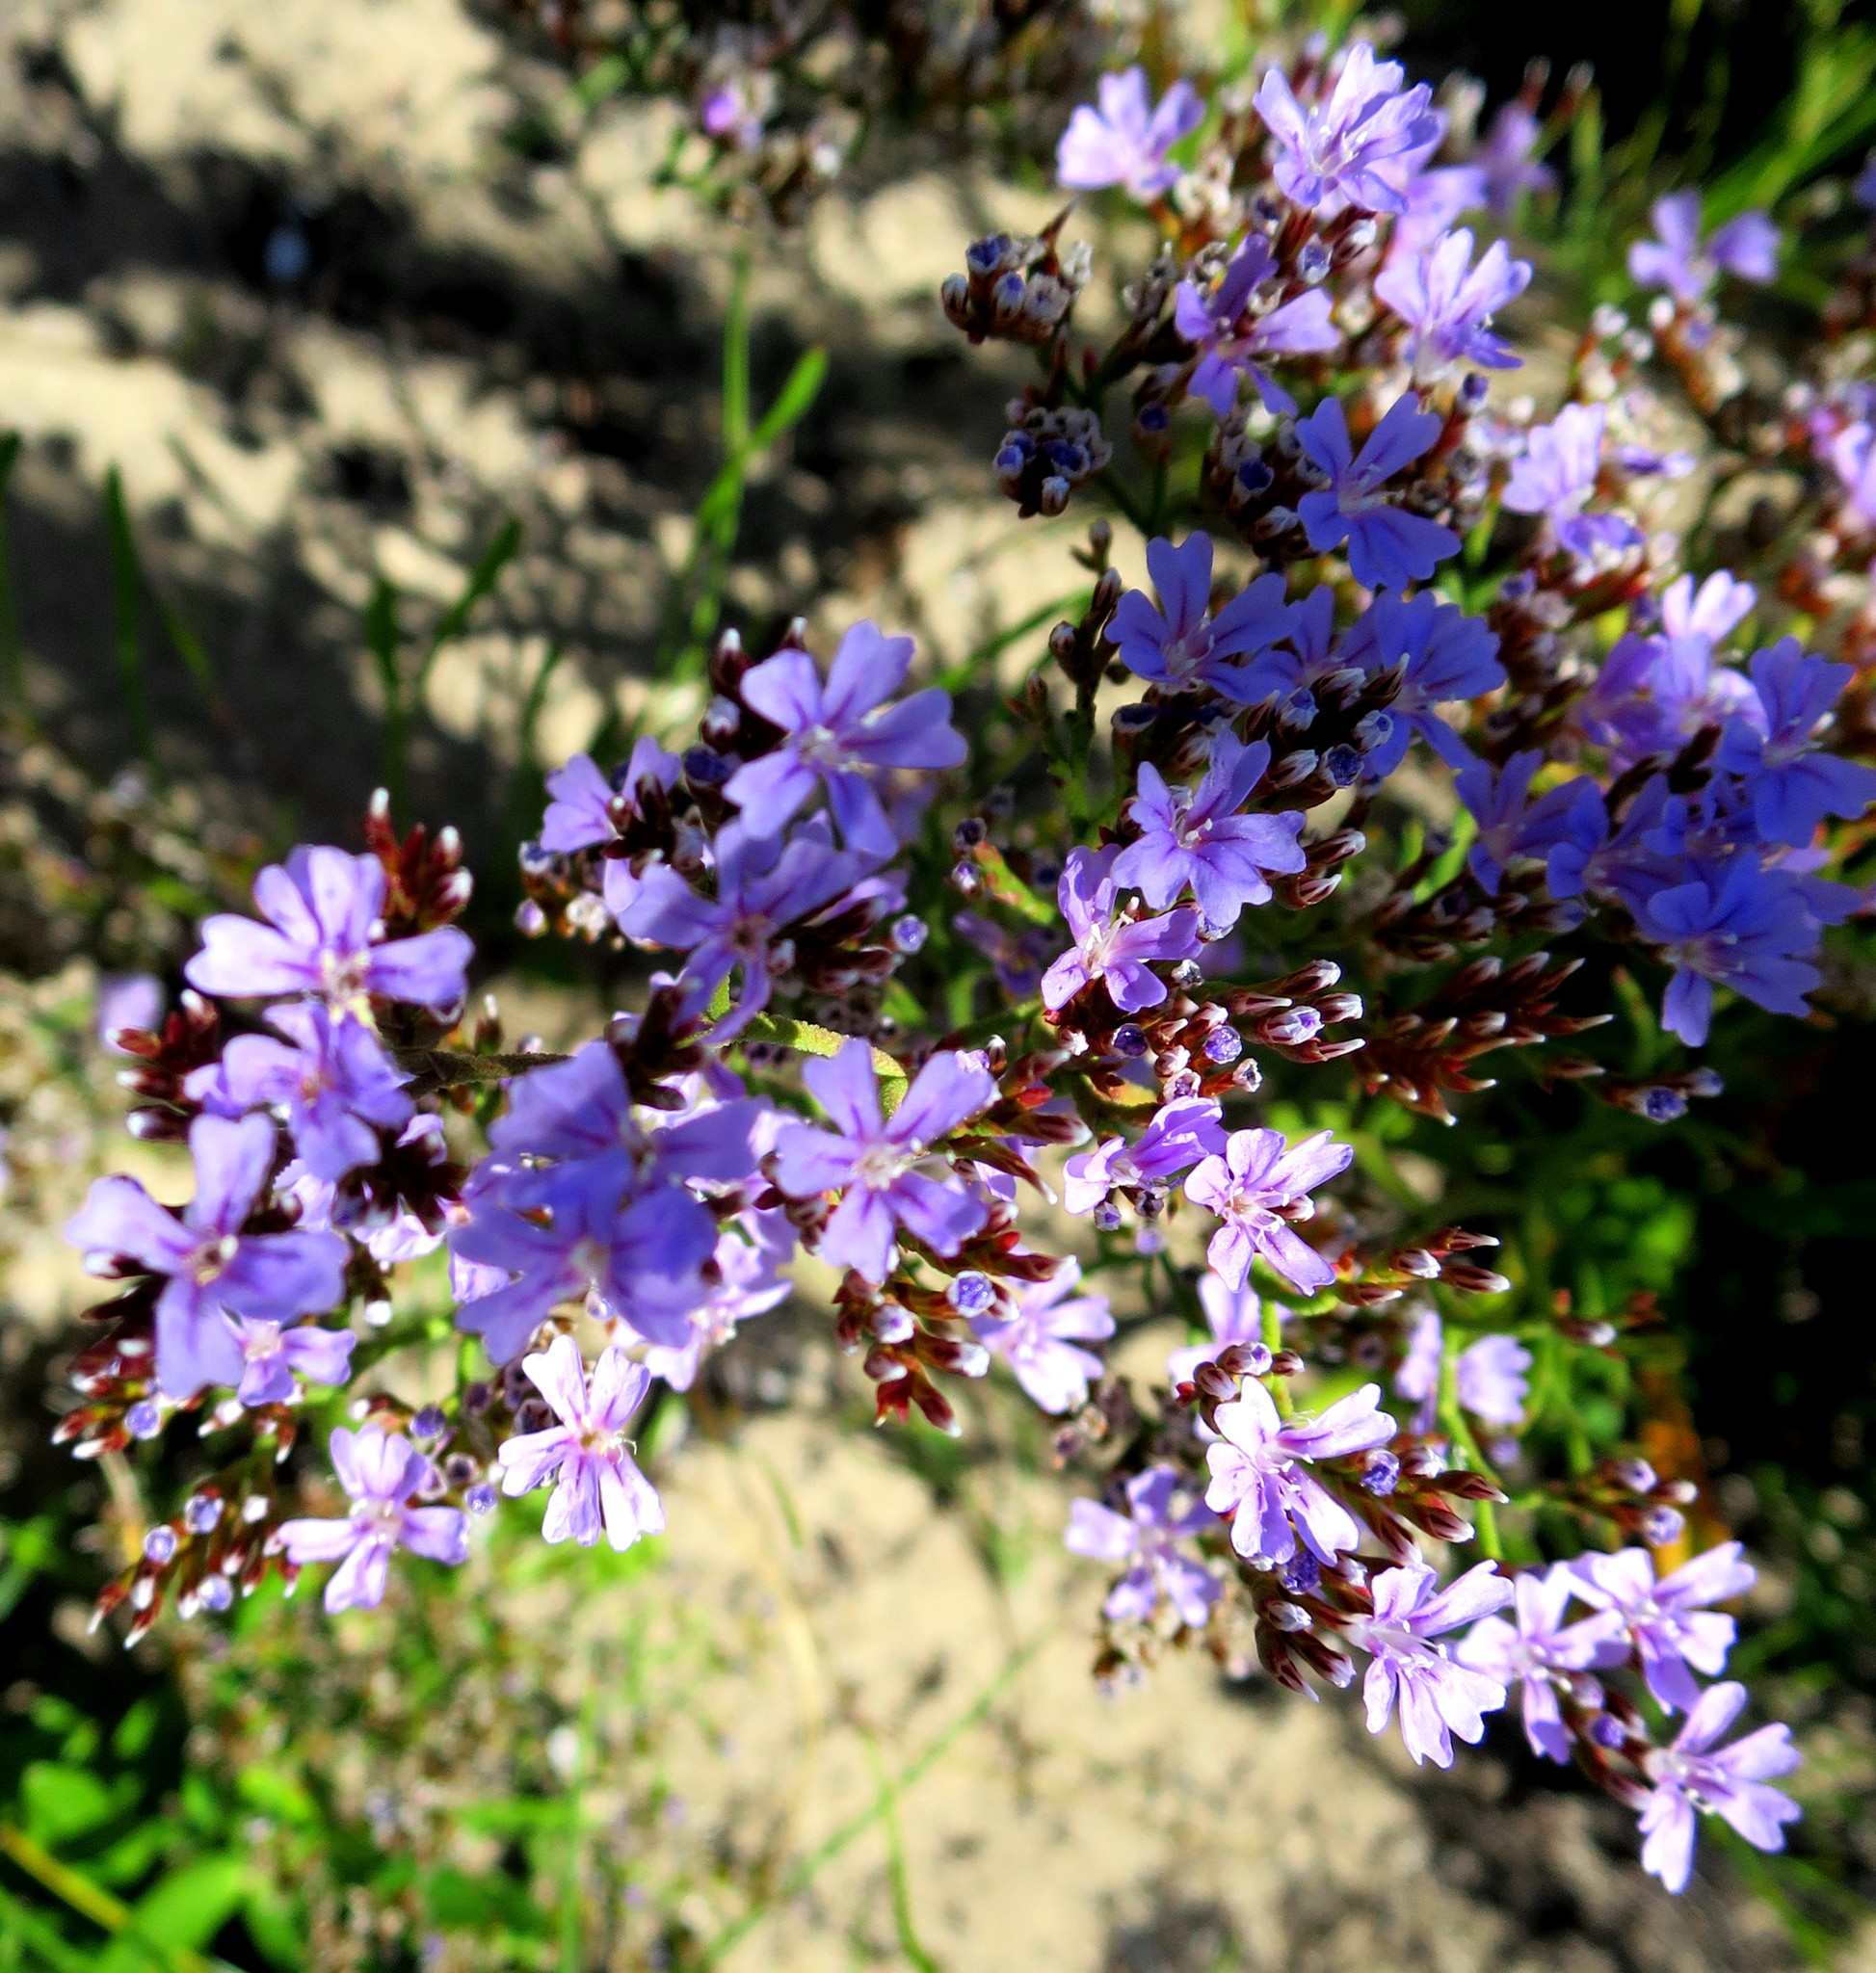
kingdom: Plantae
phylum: Tracheophyta
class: Magnoliopsida
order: Caryophyllales
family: Plumbaginaceae
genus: Limonium
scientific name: Limonium scabrum
